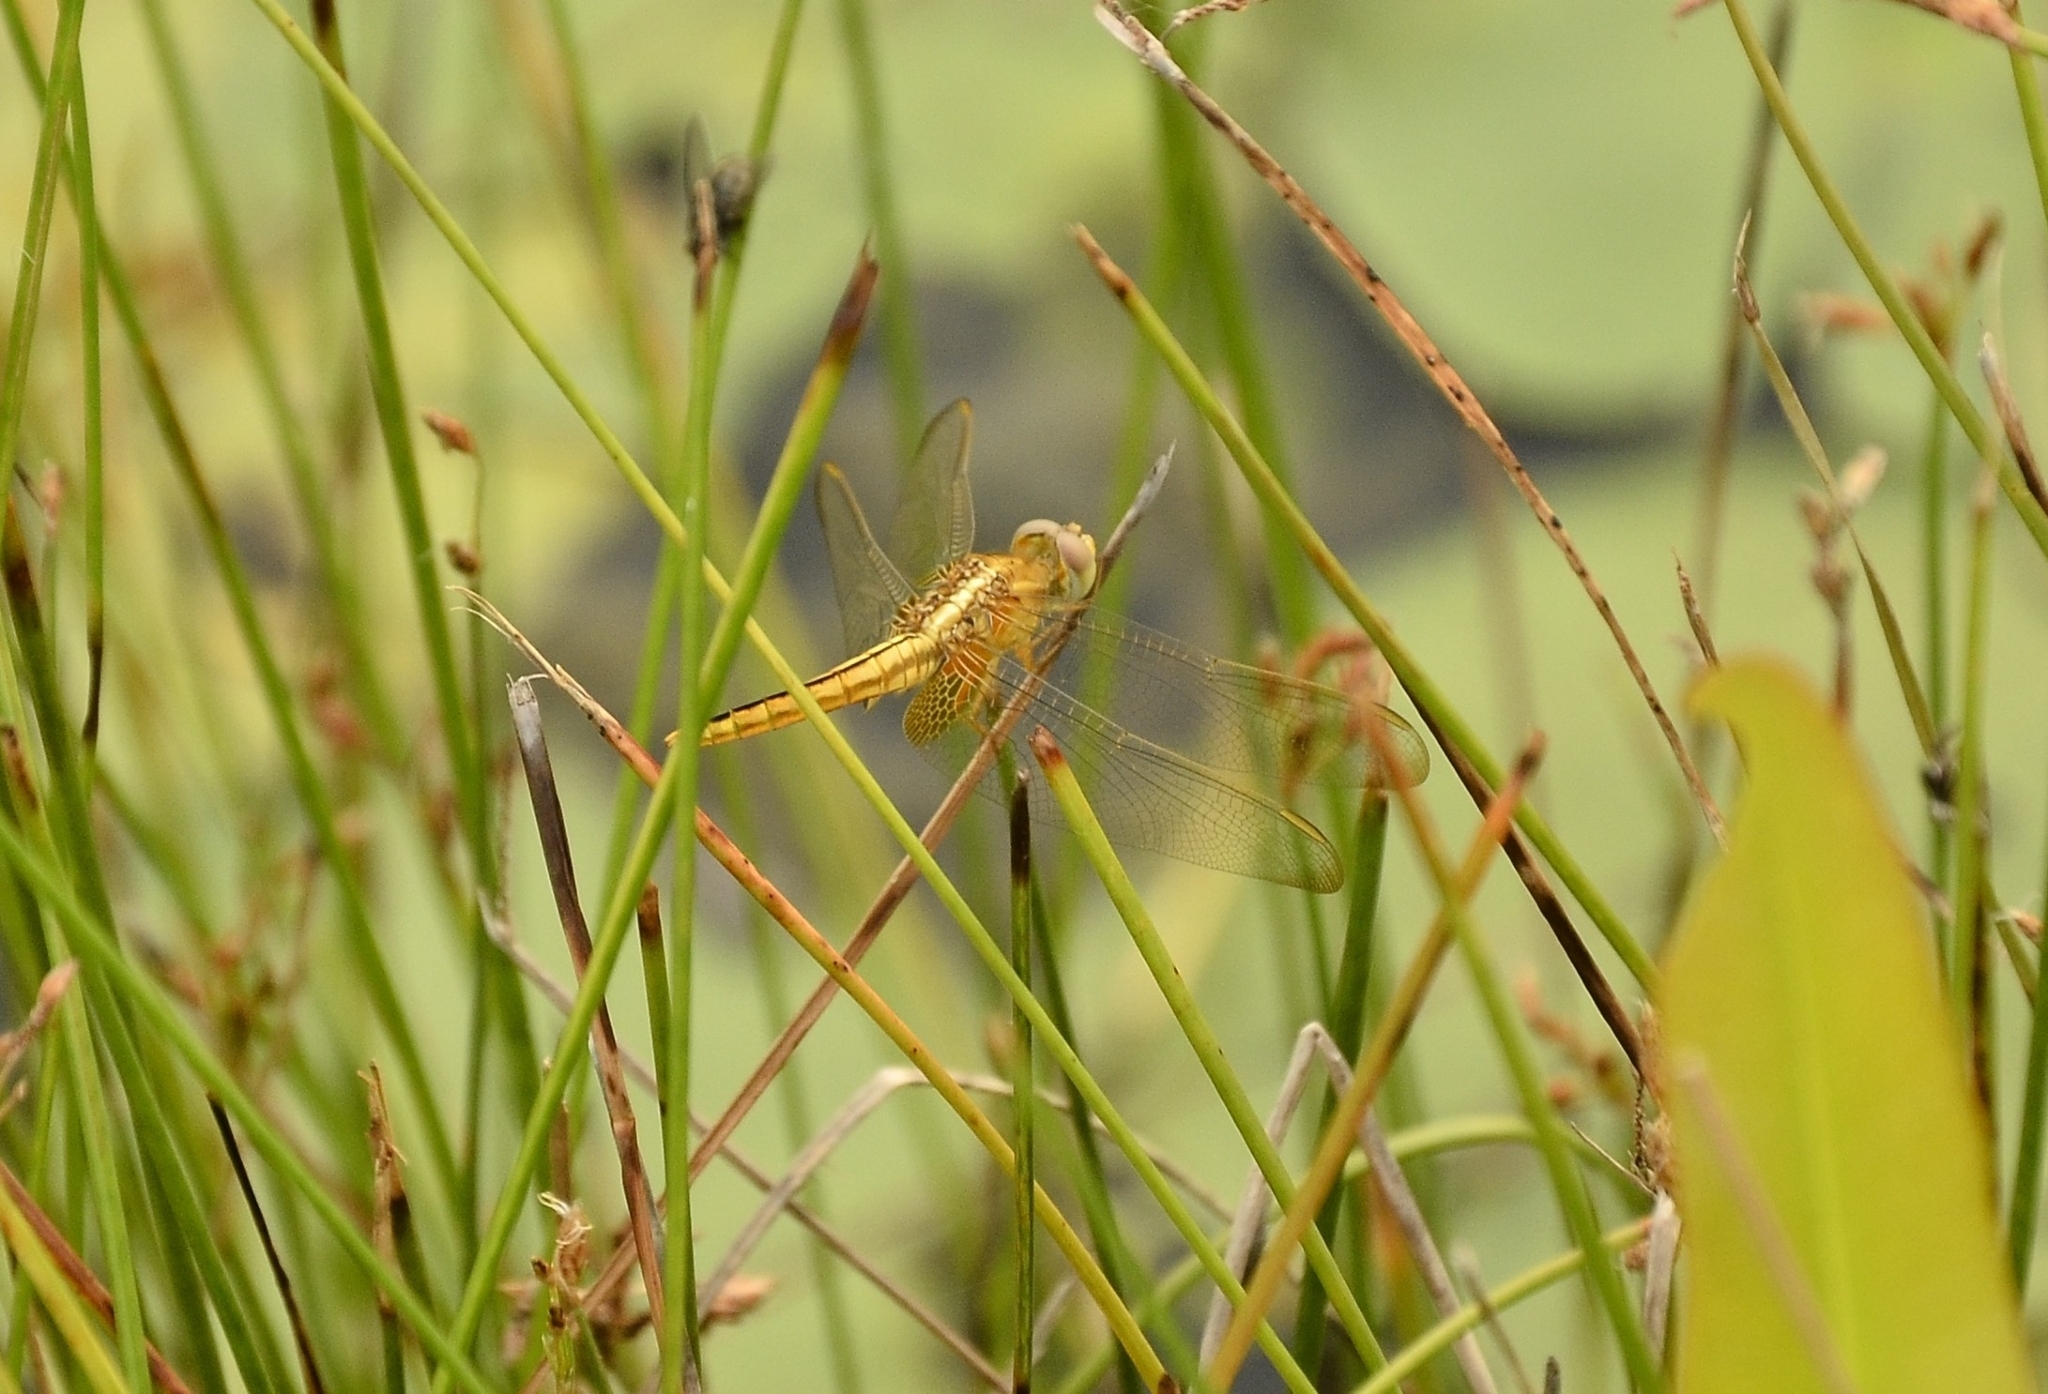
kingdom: Animalia
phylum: Arthropoda
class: Insecta
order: Odonata
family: Libellulidae
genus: Crocothemis
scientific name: Crocothemis servilia
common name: Scarlet skimmer
